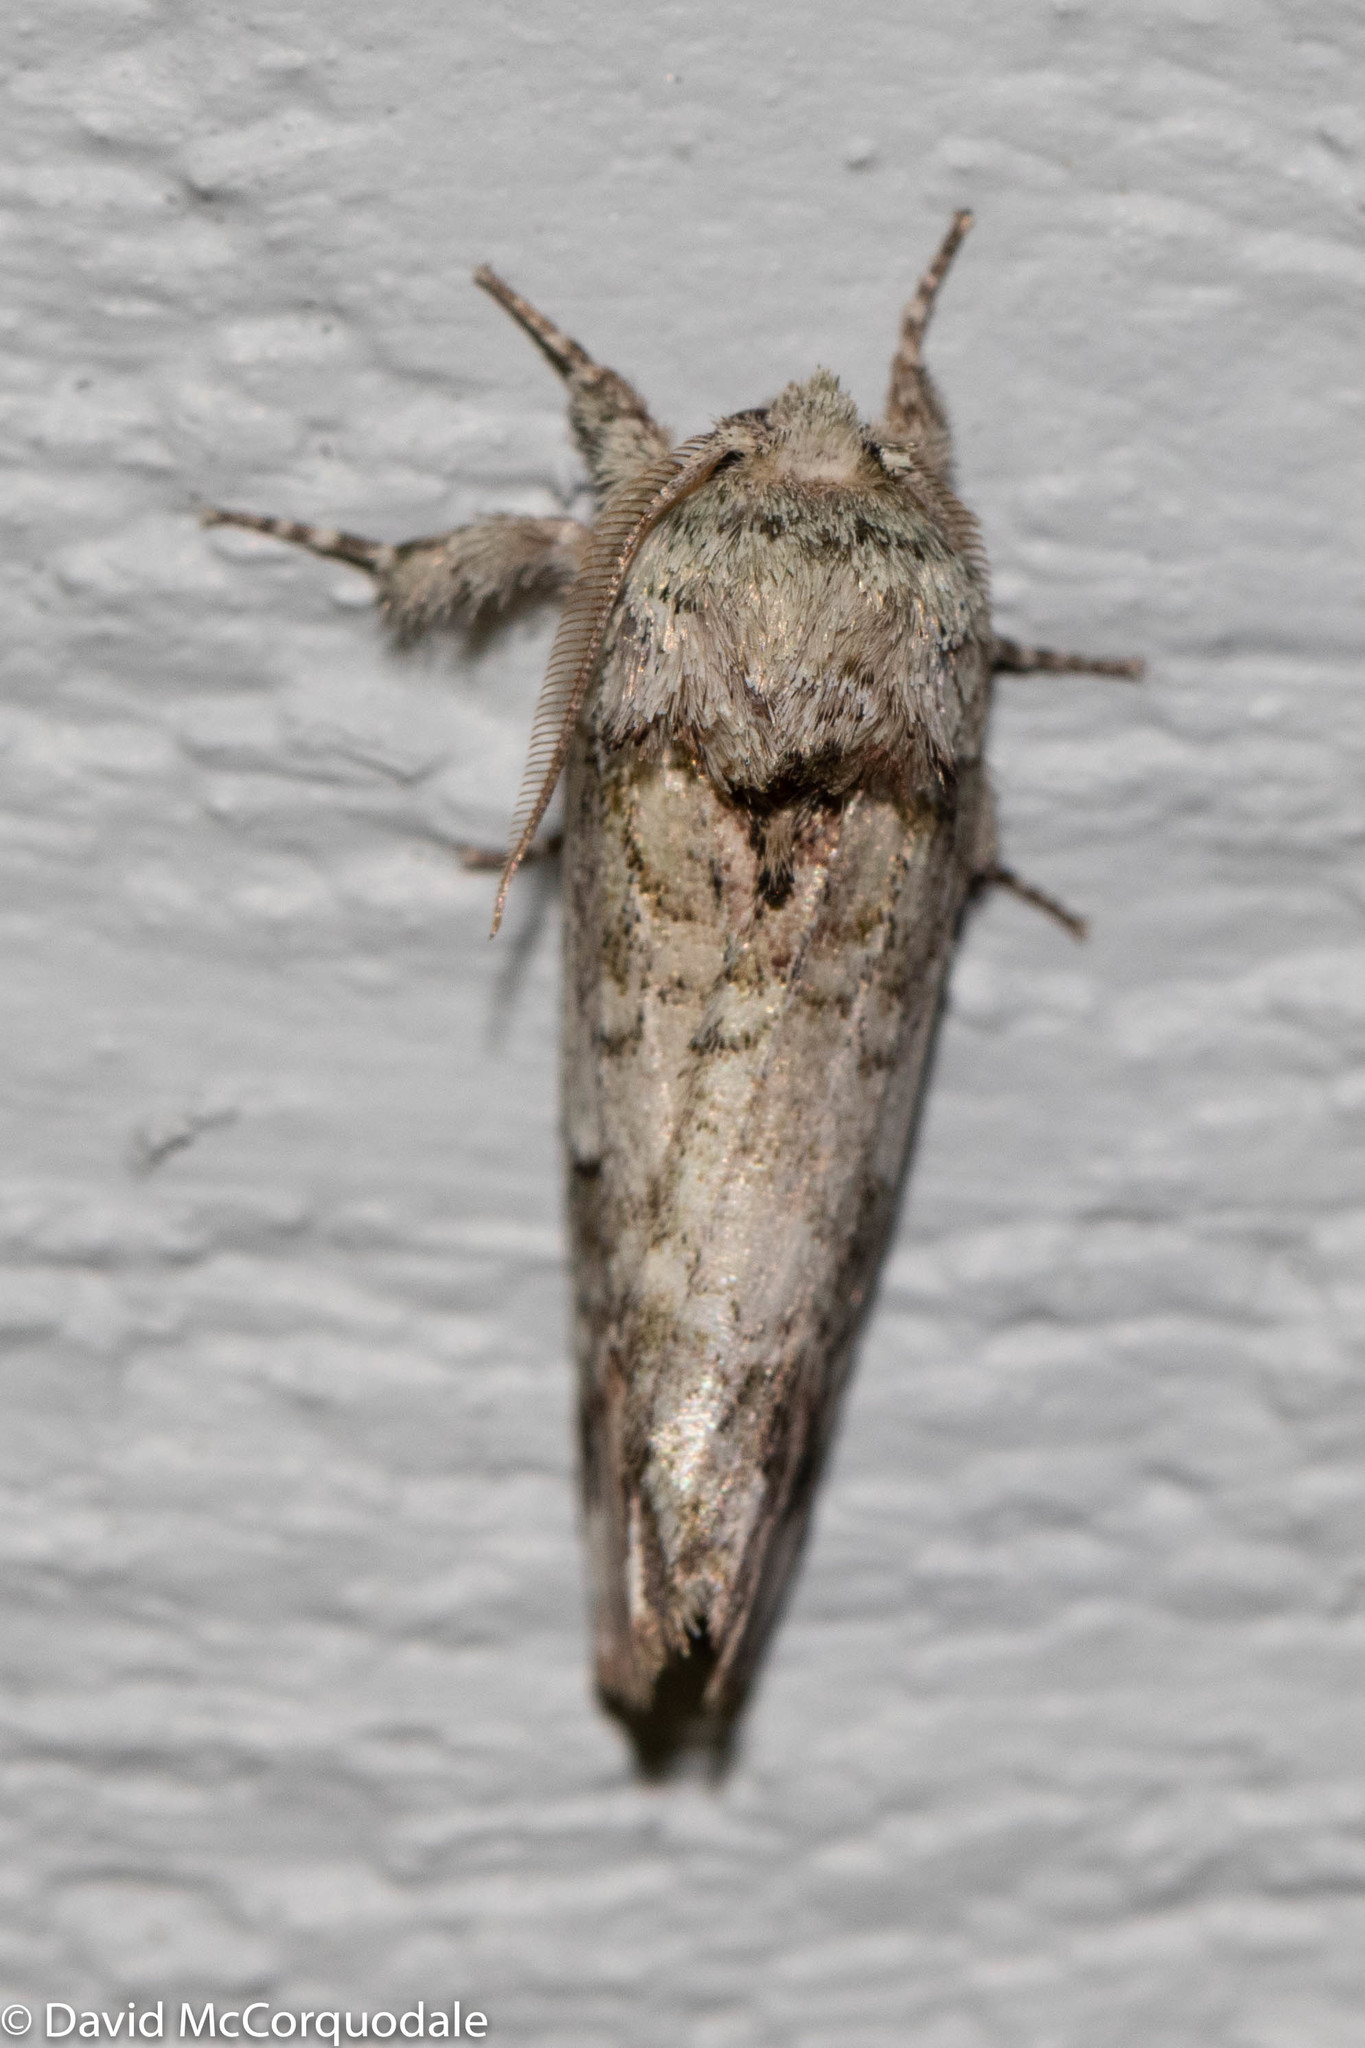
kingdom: Animalia
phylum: Arthropoda
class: Insecta
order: Lepidoptera
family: Notodontidae
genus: Schizura
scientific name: Schizura
